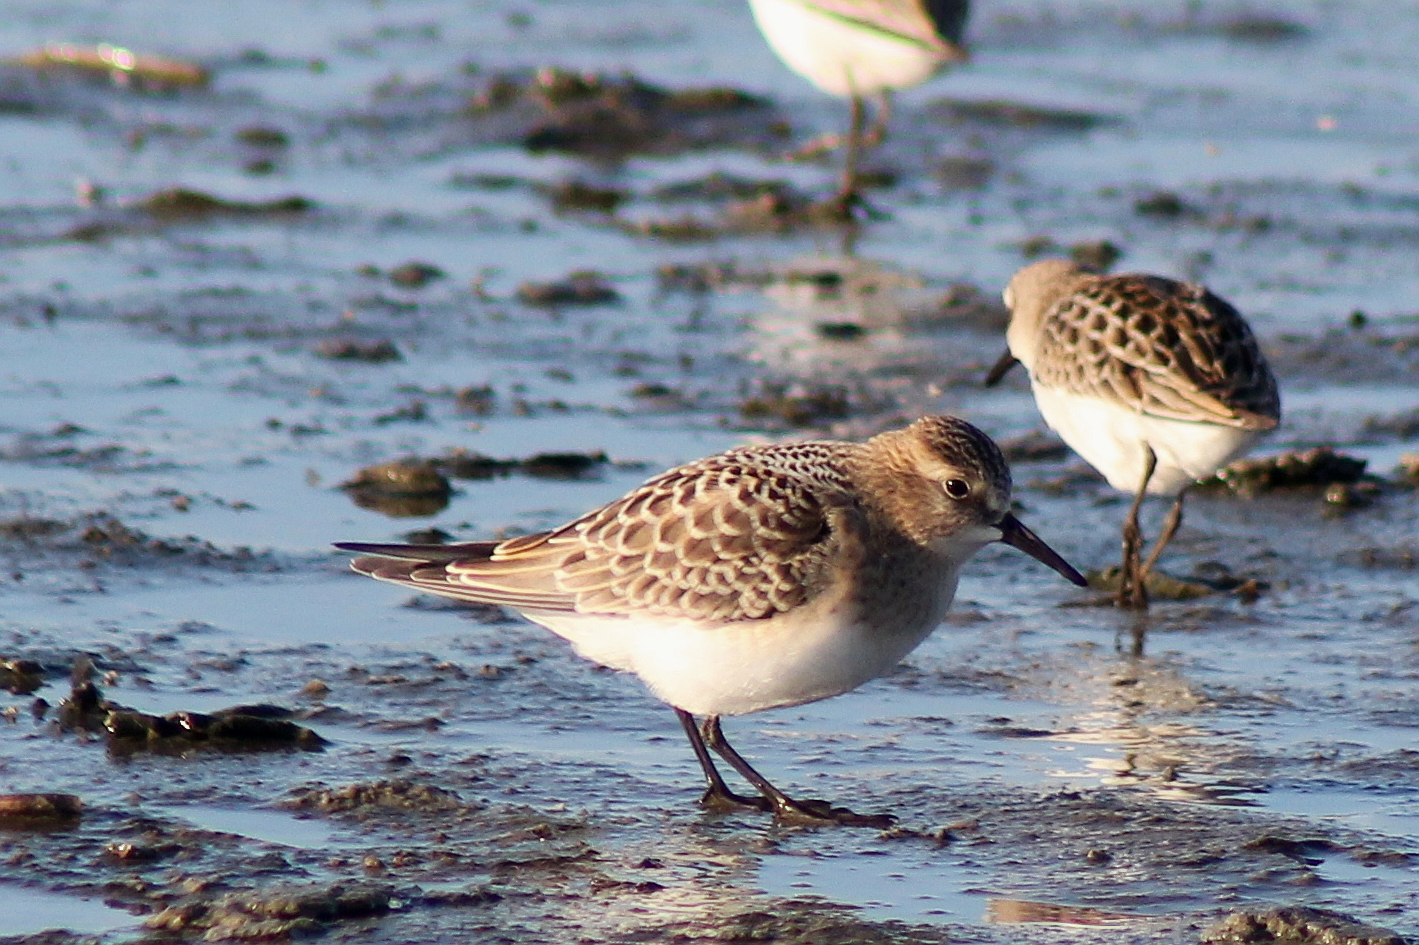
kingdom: Animalia
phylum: Chordata
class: Aves
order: Charadriiformes
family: Scolopacidae
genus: Calidris
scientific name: Calidris bairdii
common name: Baird's sandpiper
